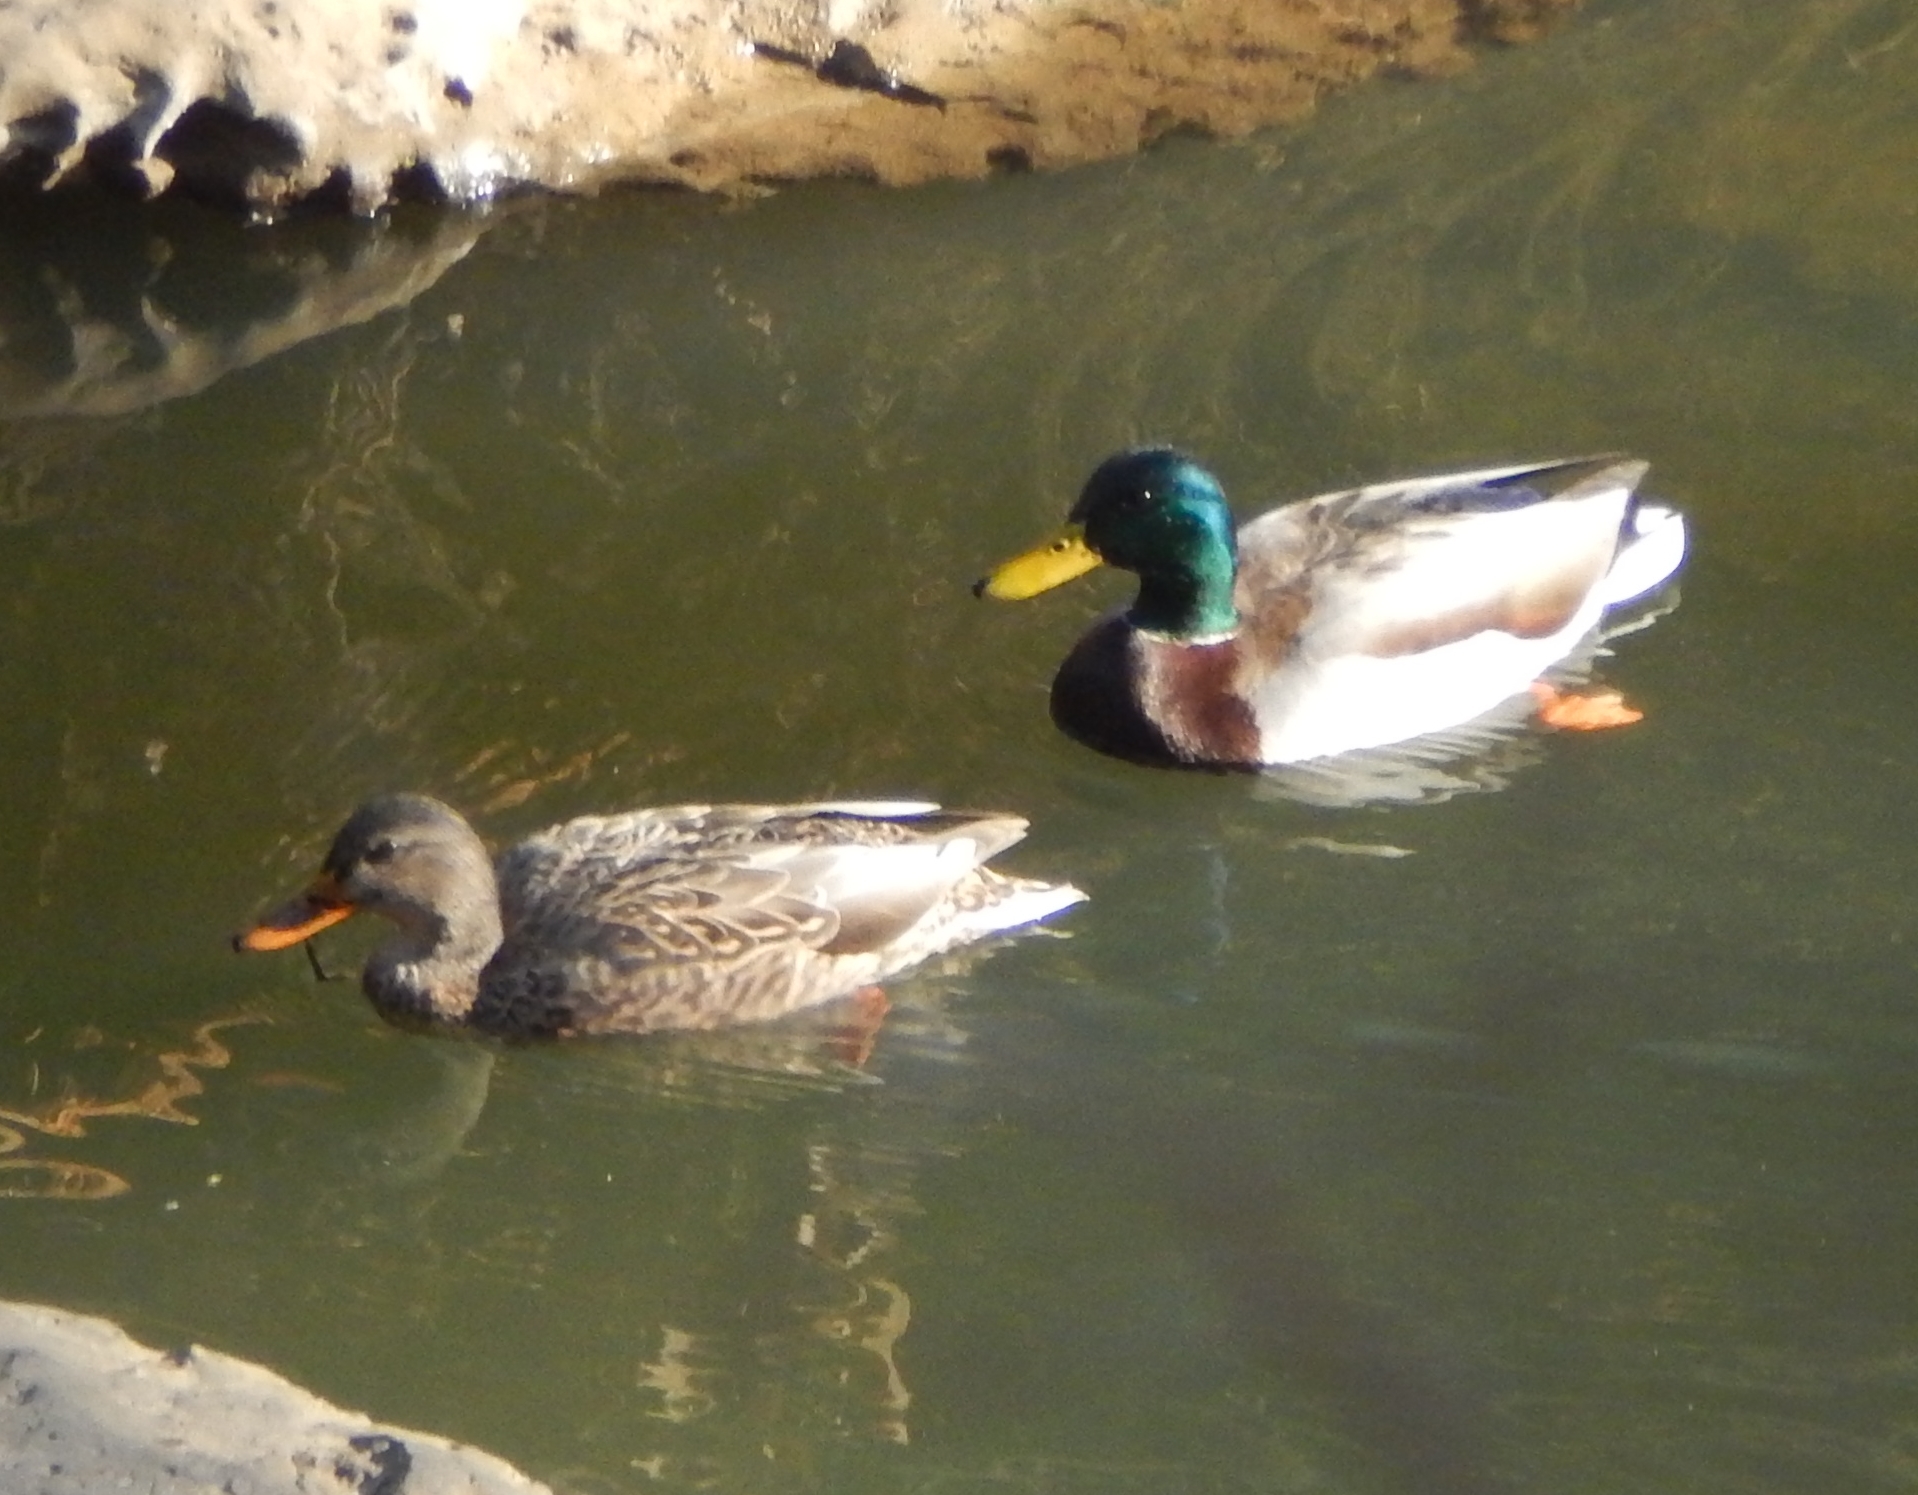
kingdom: Animalia
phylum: Chordata
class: Aves
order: Anseriformes
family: Anatidae
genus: Anas
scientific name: Anas platyrhynchos
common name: Mallard
